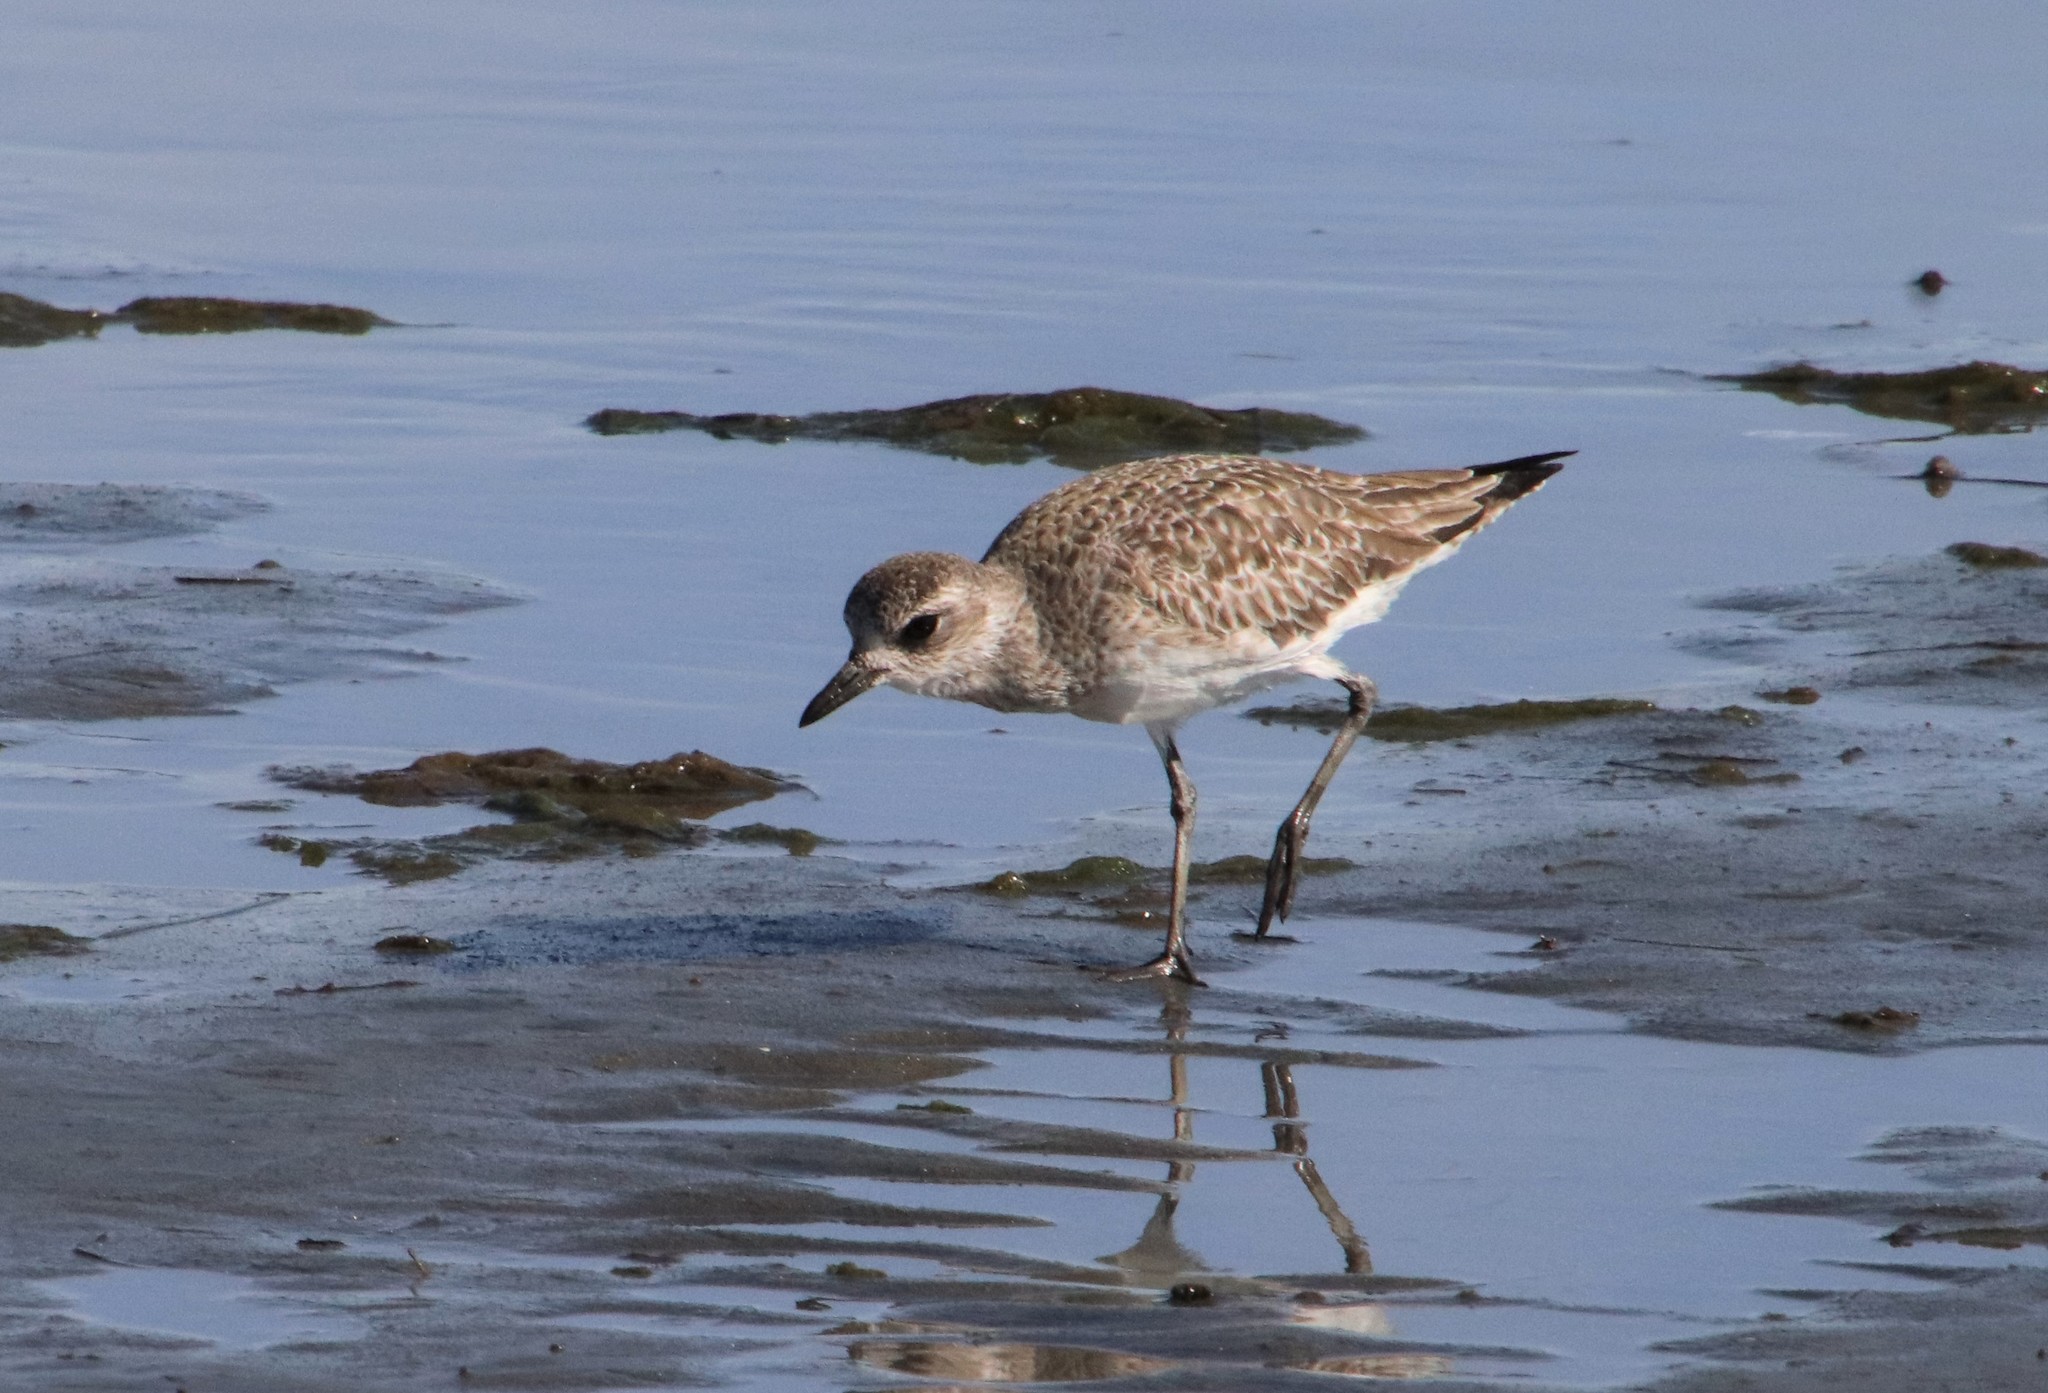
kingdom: Animalia
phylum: Chordata
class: Aves
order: Charadriiformes
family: Charadriidae
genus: Pluvialis
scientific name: Pluvialis squatarola
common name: Grey plover
